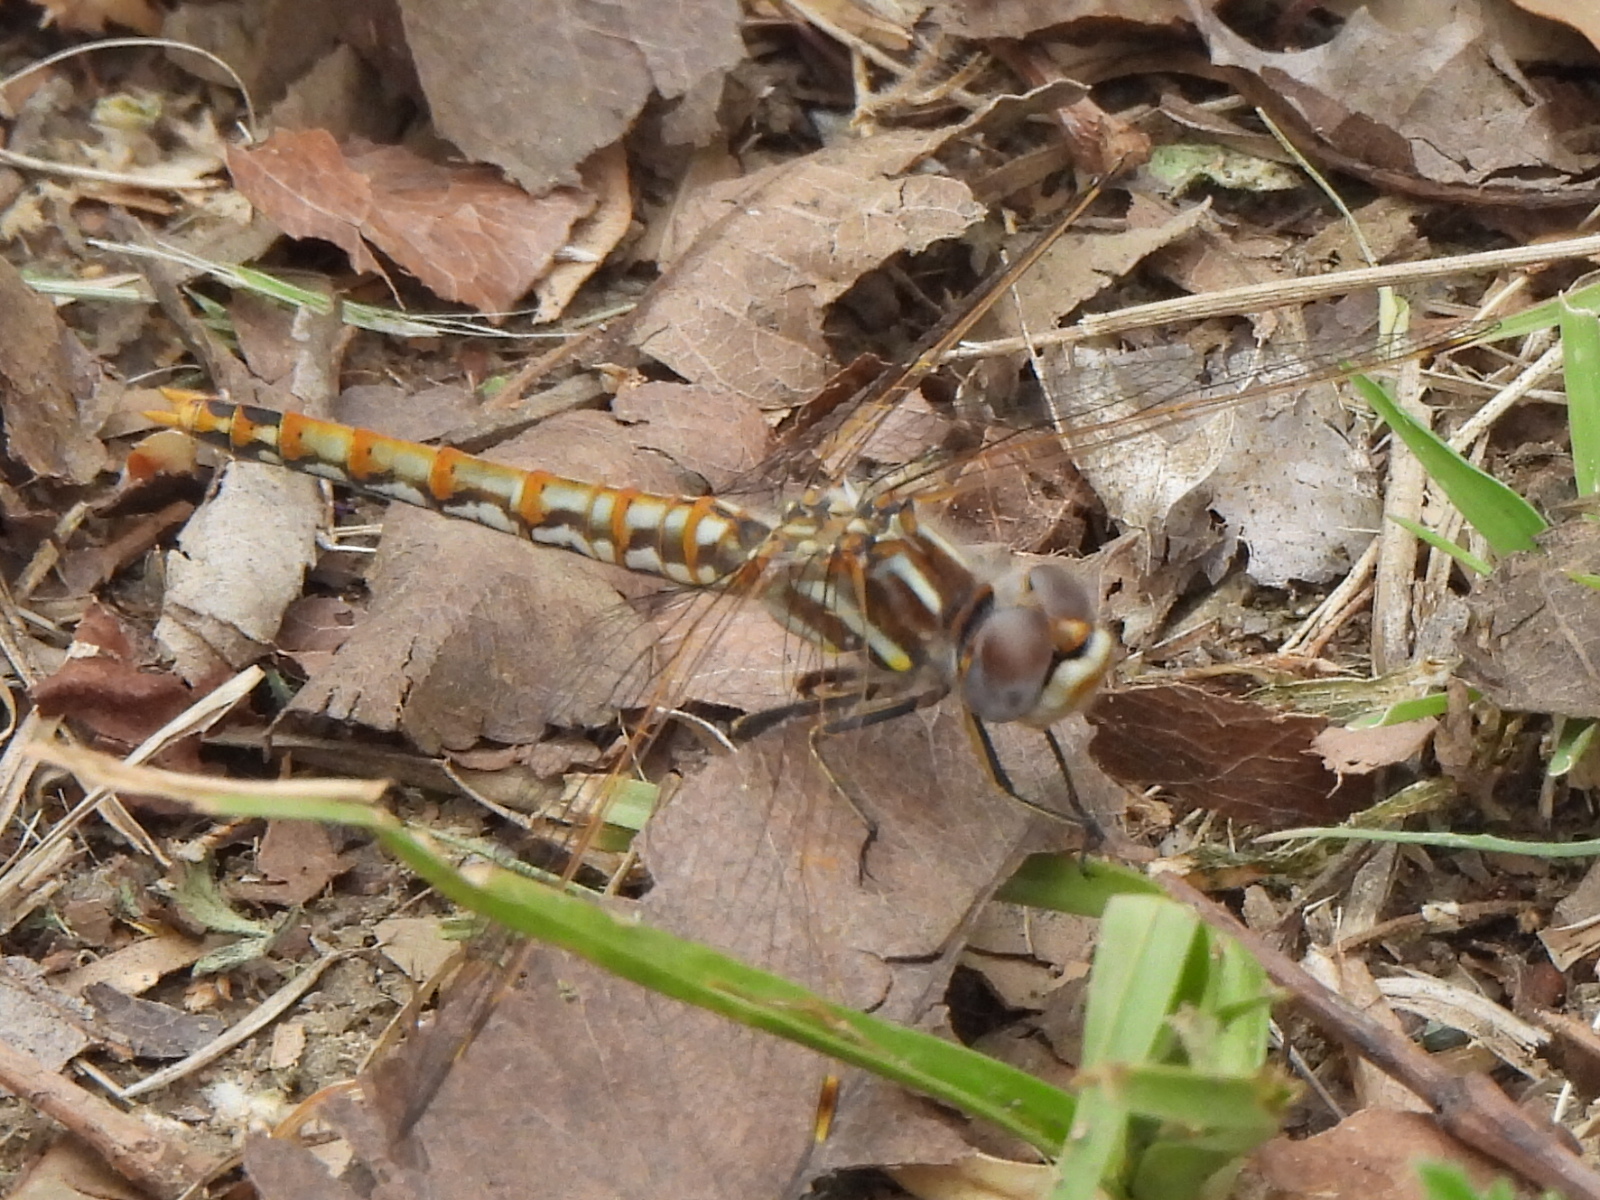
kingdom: Animalia
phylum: Arthropoda
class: Insecta
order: Odonata
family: Libellulidae
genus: Sympetrum
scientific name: Sympetrum corruptum
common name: Variegated meadowhawk
